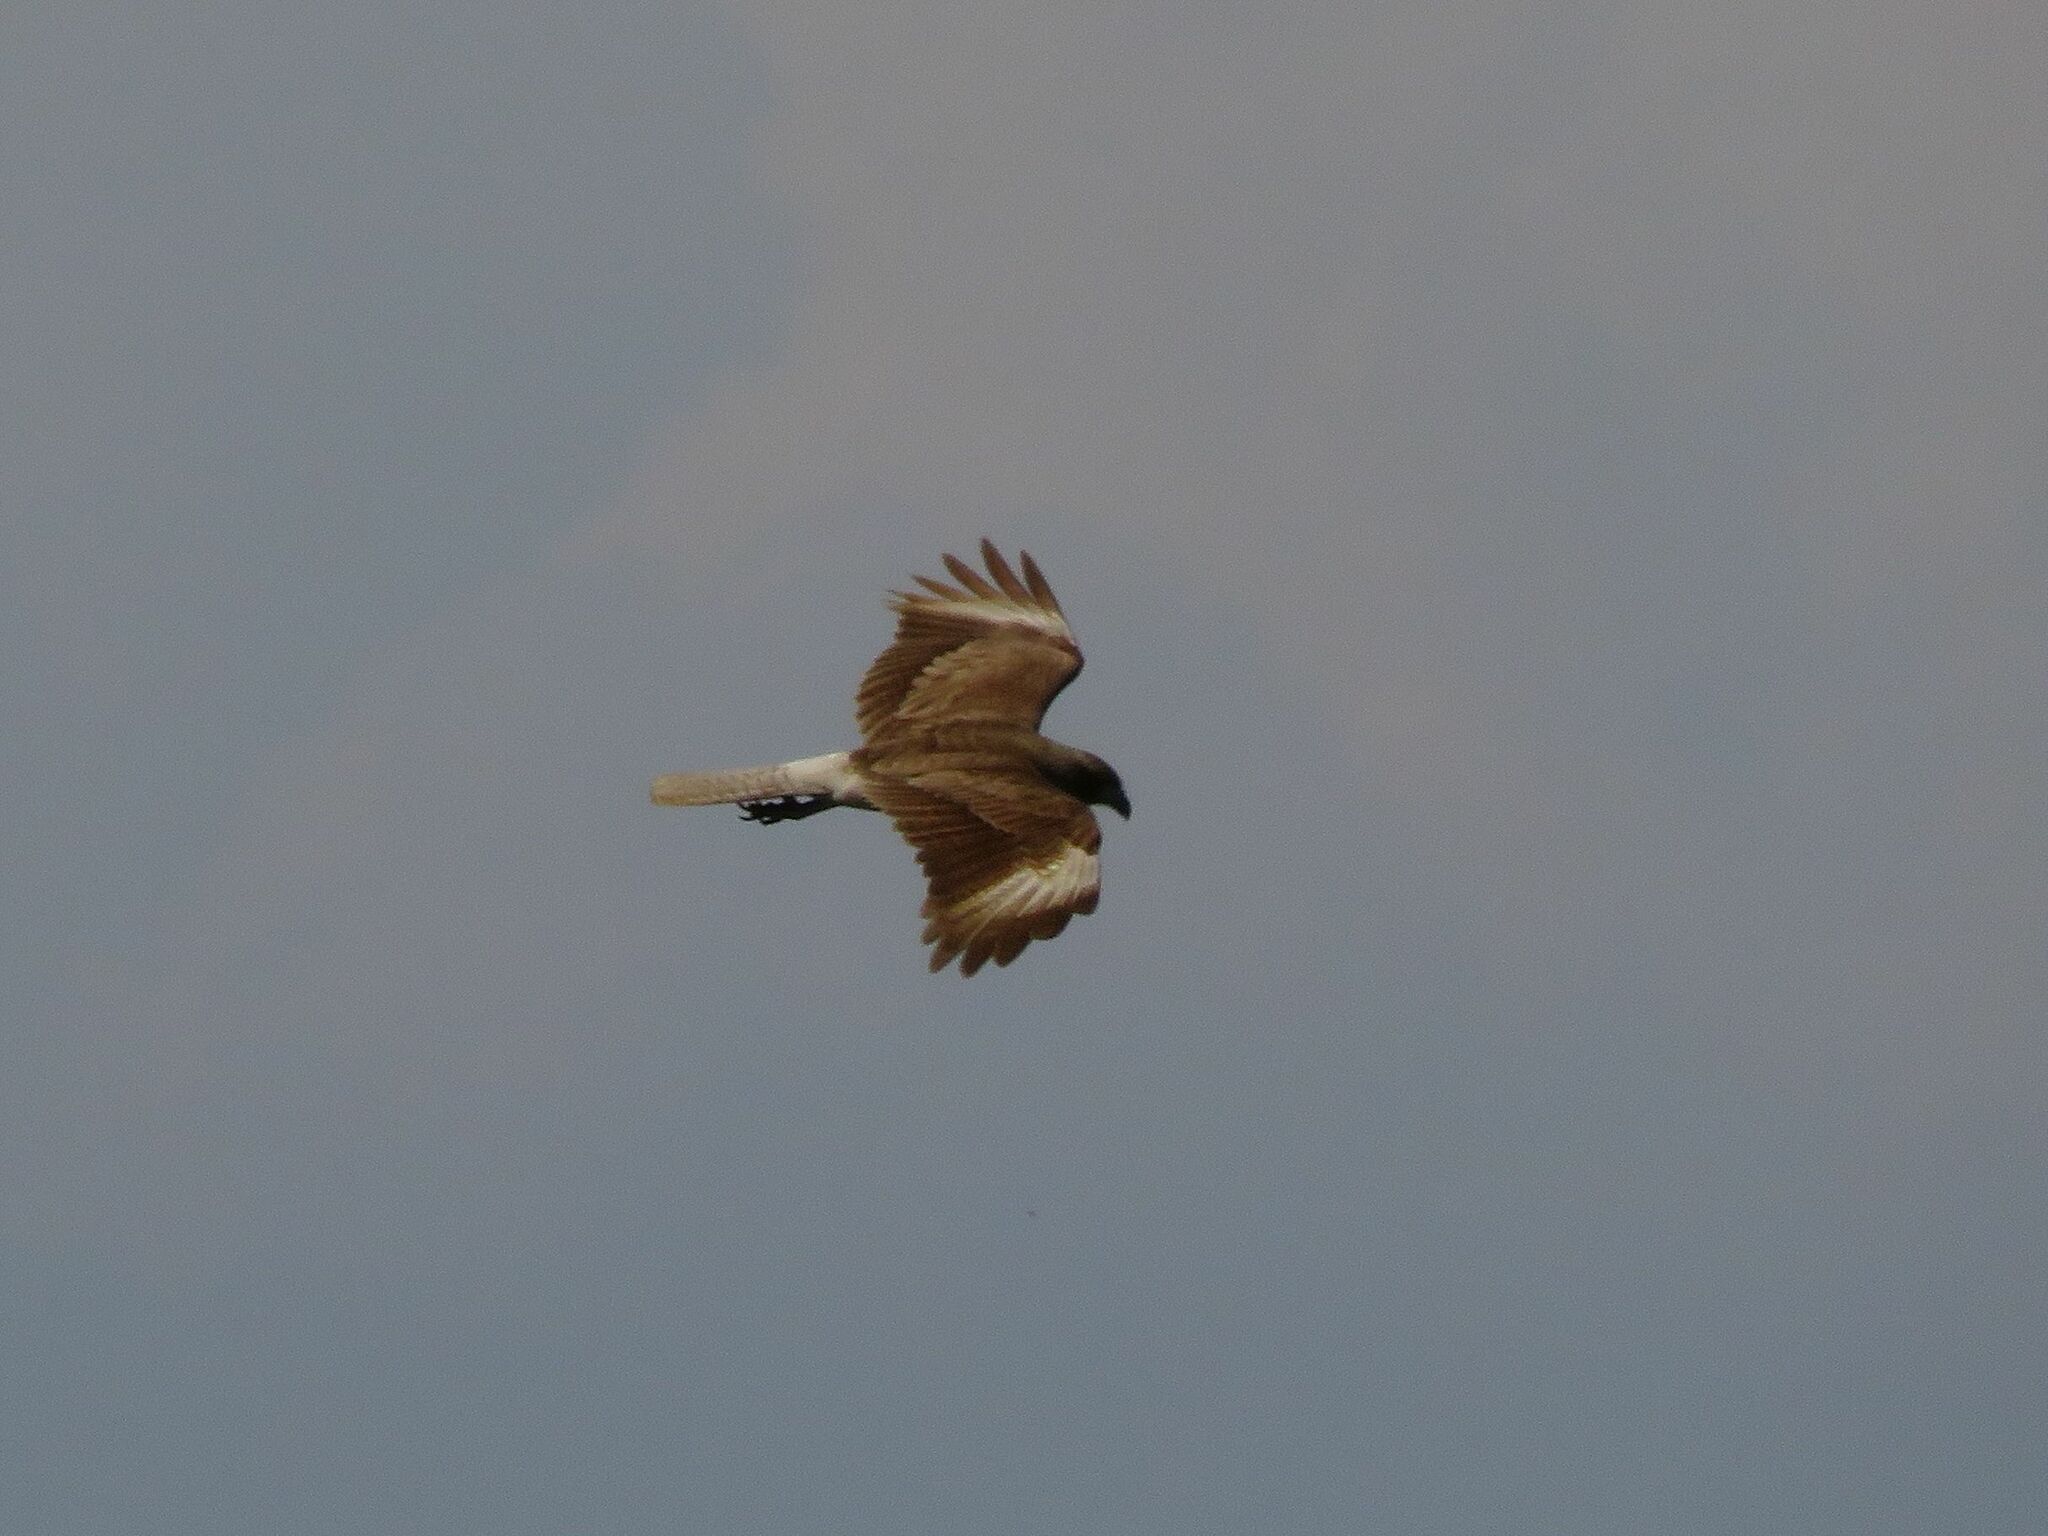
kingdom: Animalia
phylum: Chordata
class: Aves
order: Falconiformes
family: Falconidae
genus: Daptrius
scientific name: Daptrius
